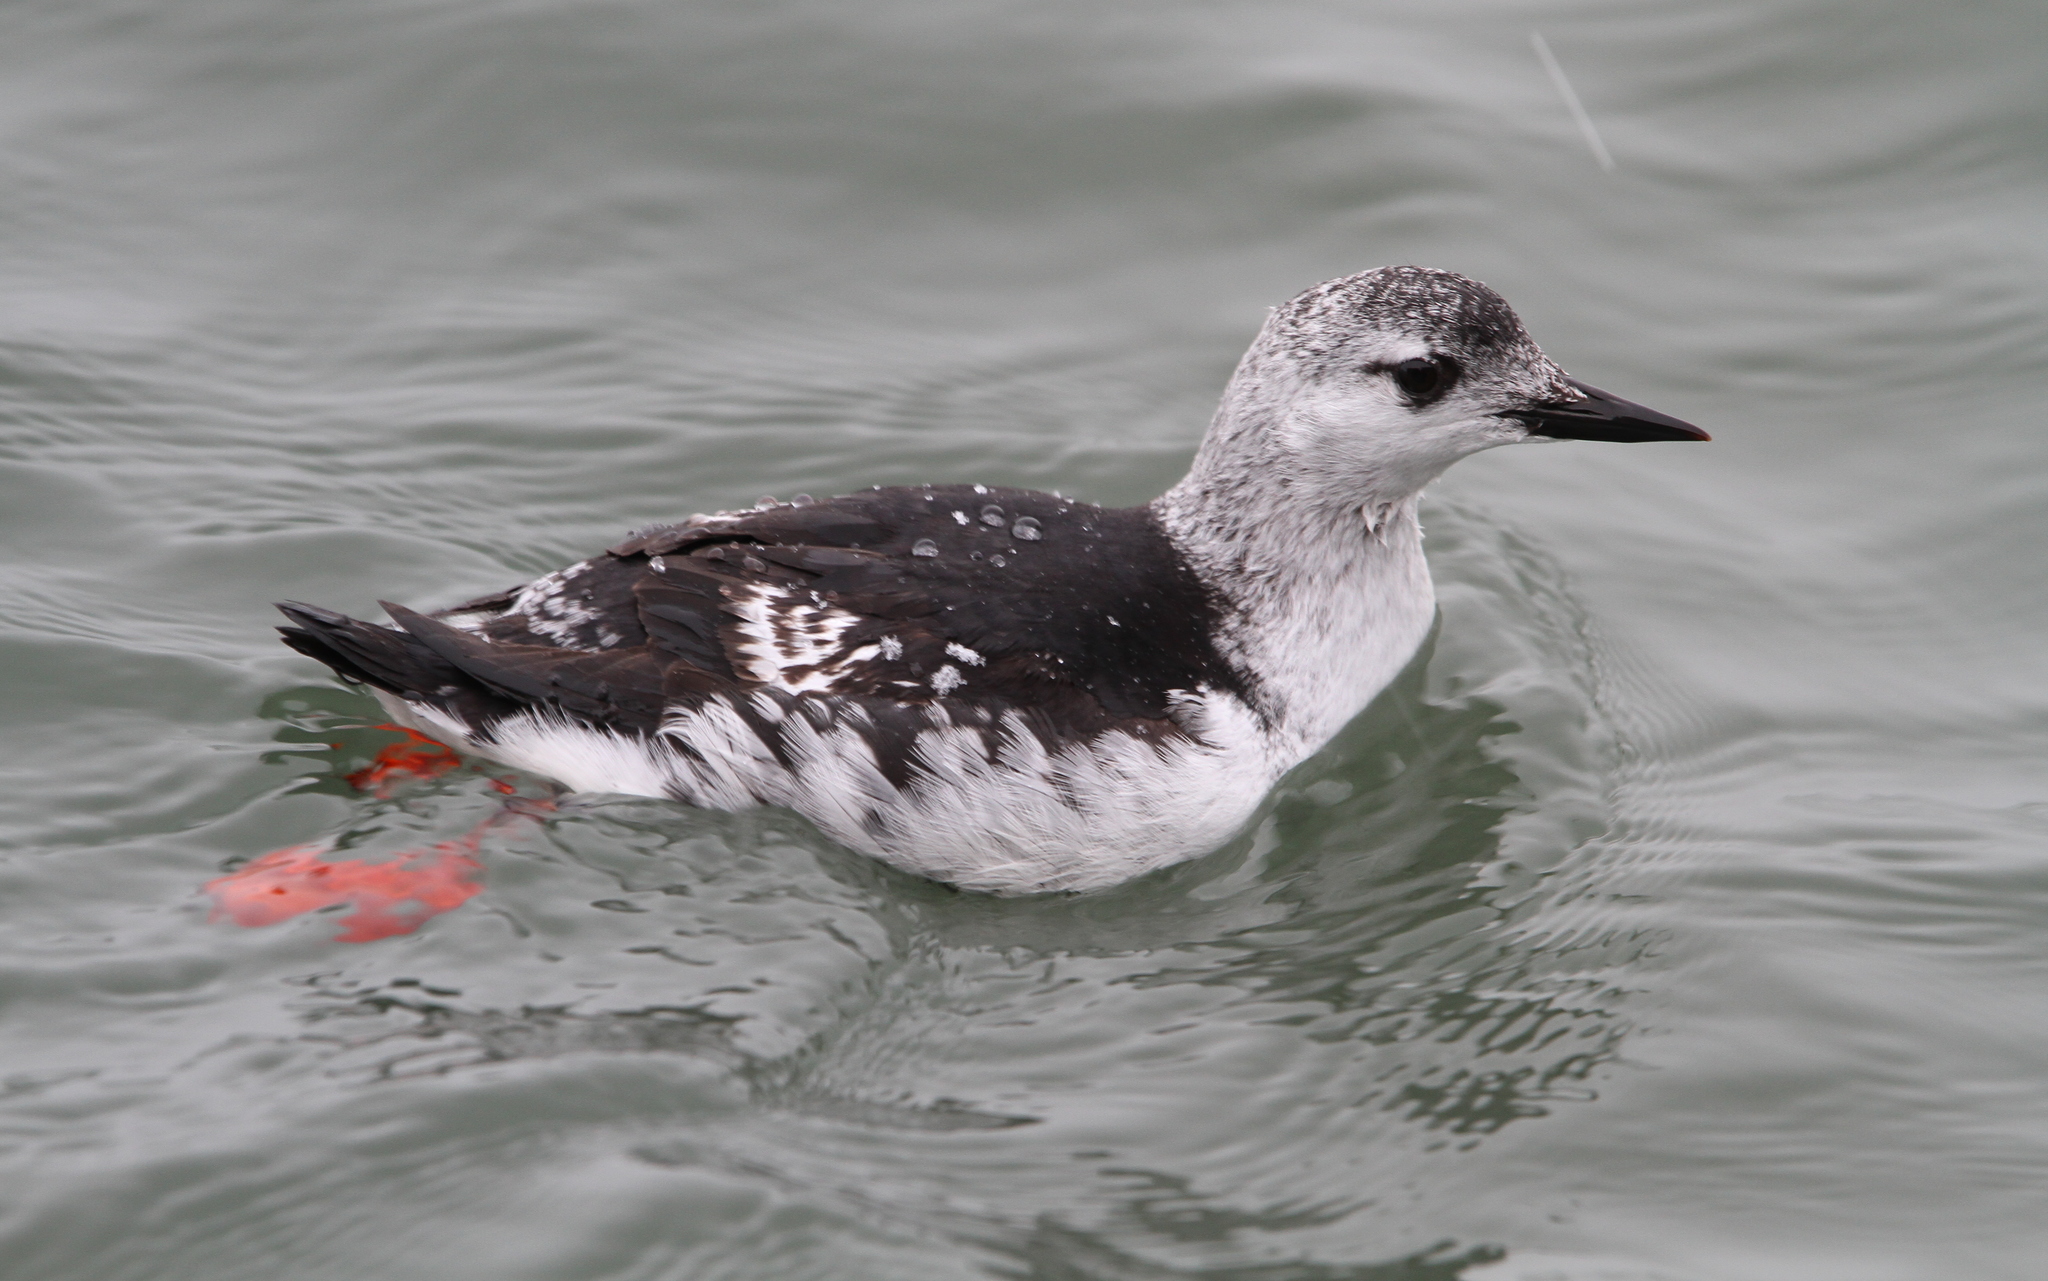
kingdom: Animalia
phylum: Chordata
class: Aves
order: Charadriiformes
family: Alcidae
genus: Cepphus
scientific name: Cepphus grylle
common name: Black guillemot
